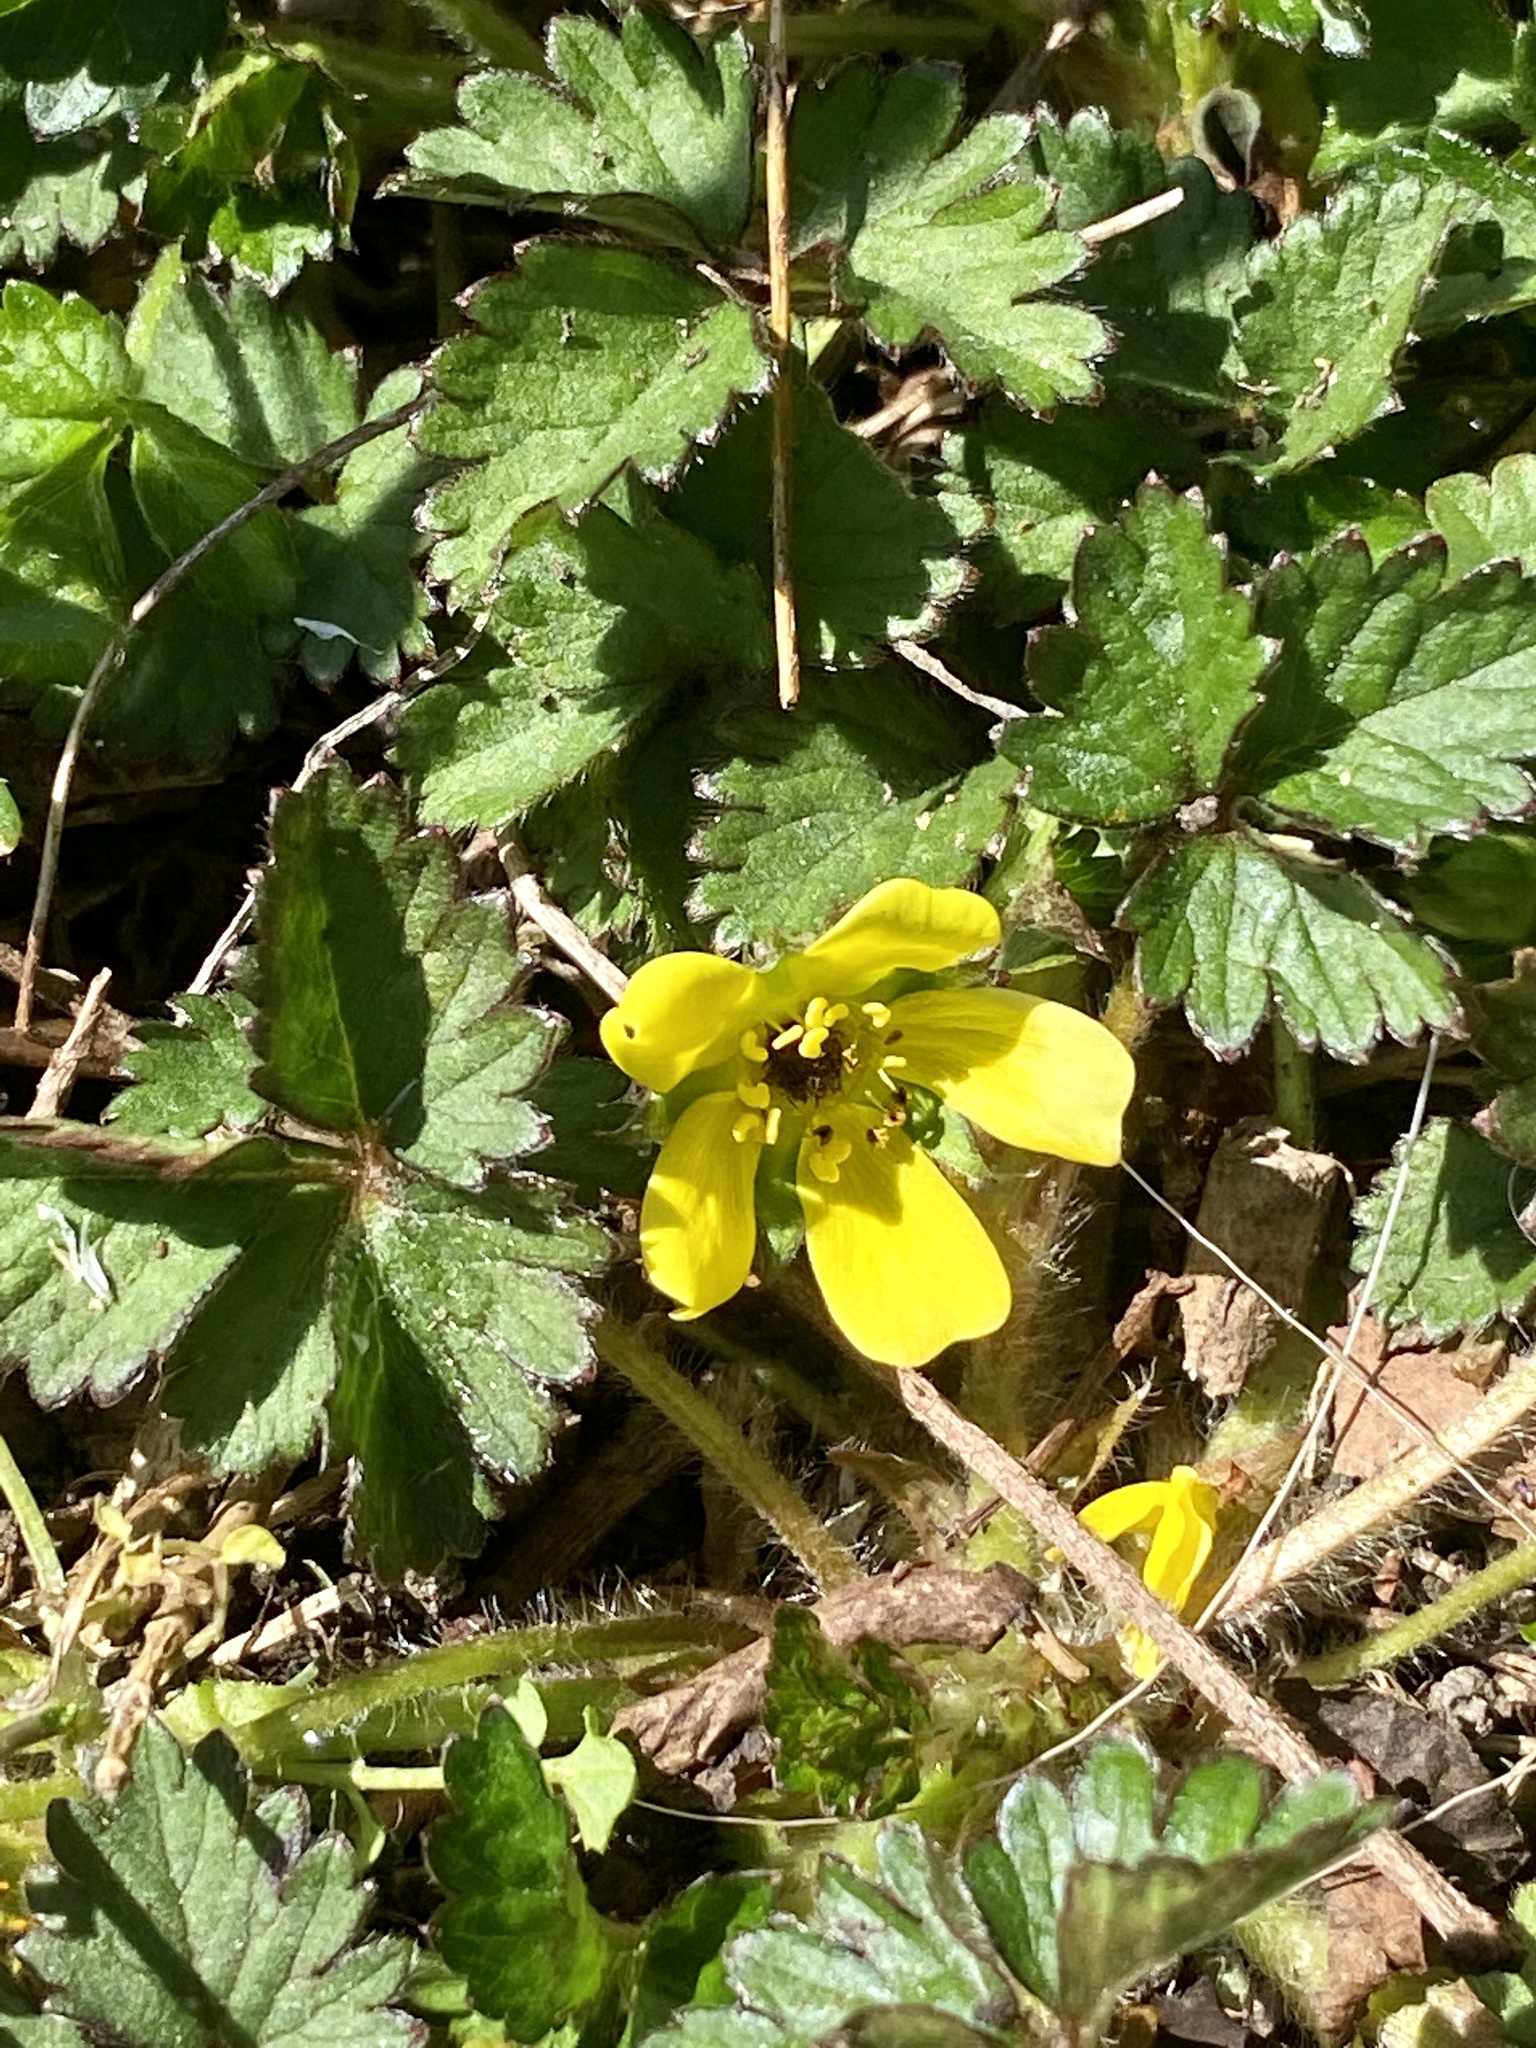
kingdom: Plantae
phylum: Tracheophyta
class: Magnoliopsida
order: Rosales
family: Rosaceae
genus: Potentilla
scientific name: Potentilla indica
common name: Yellow-flowered strawberry
